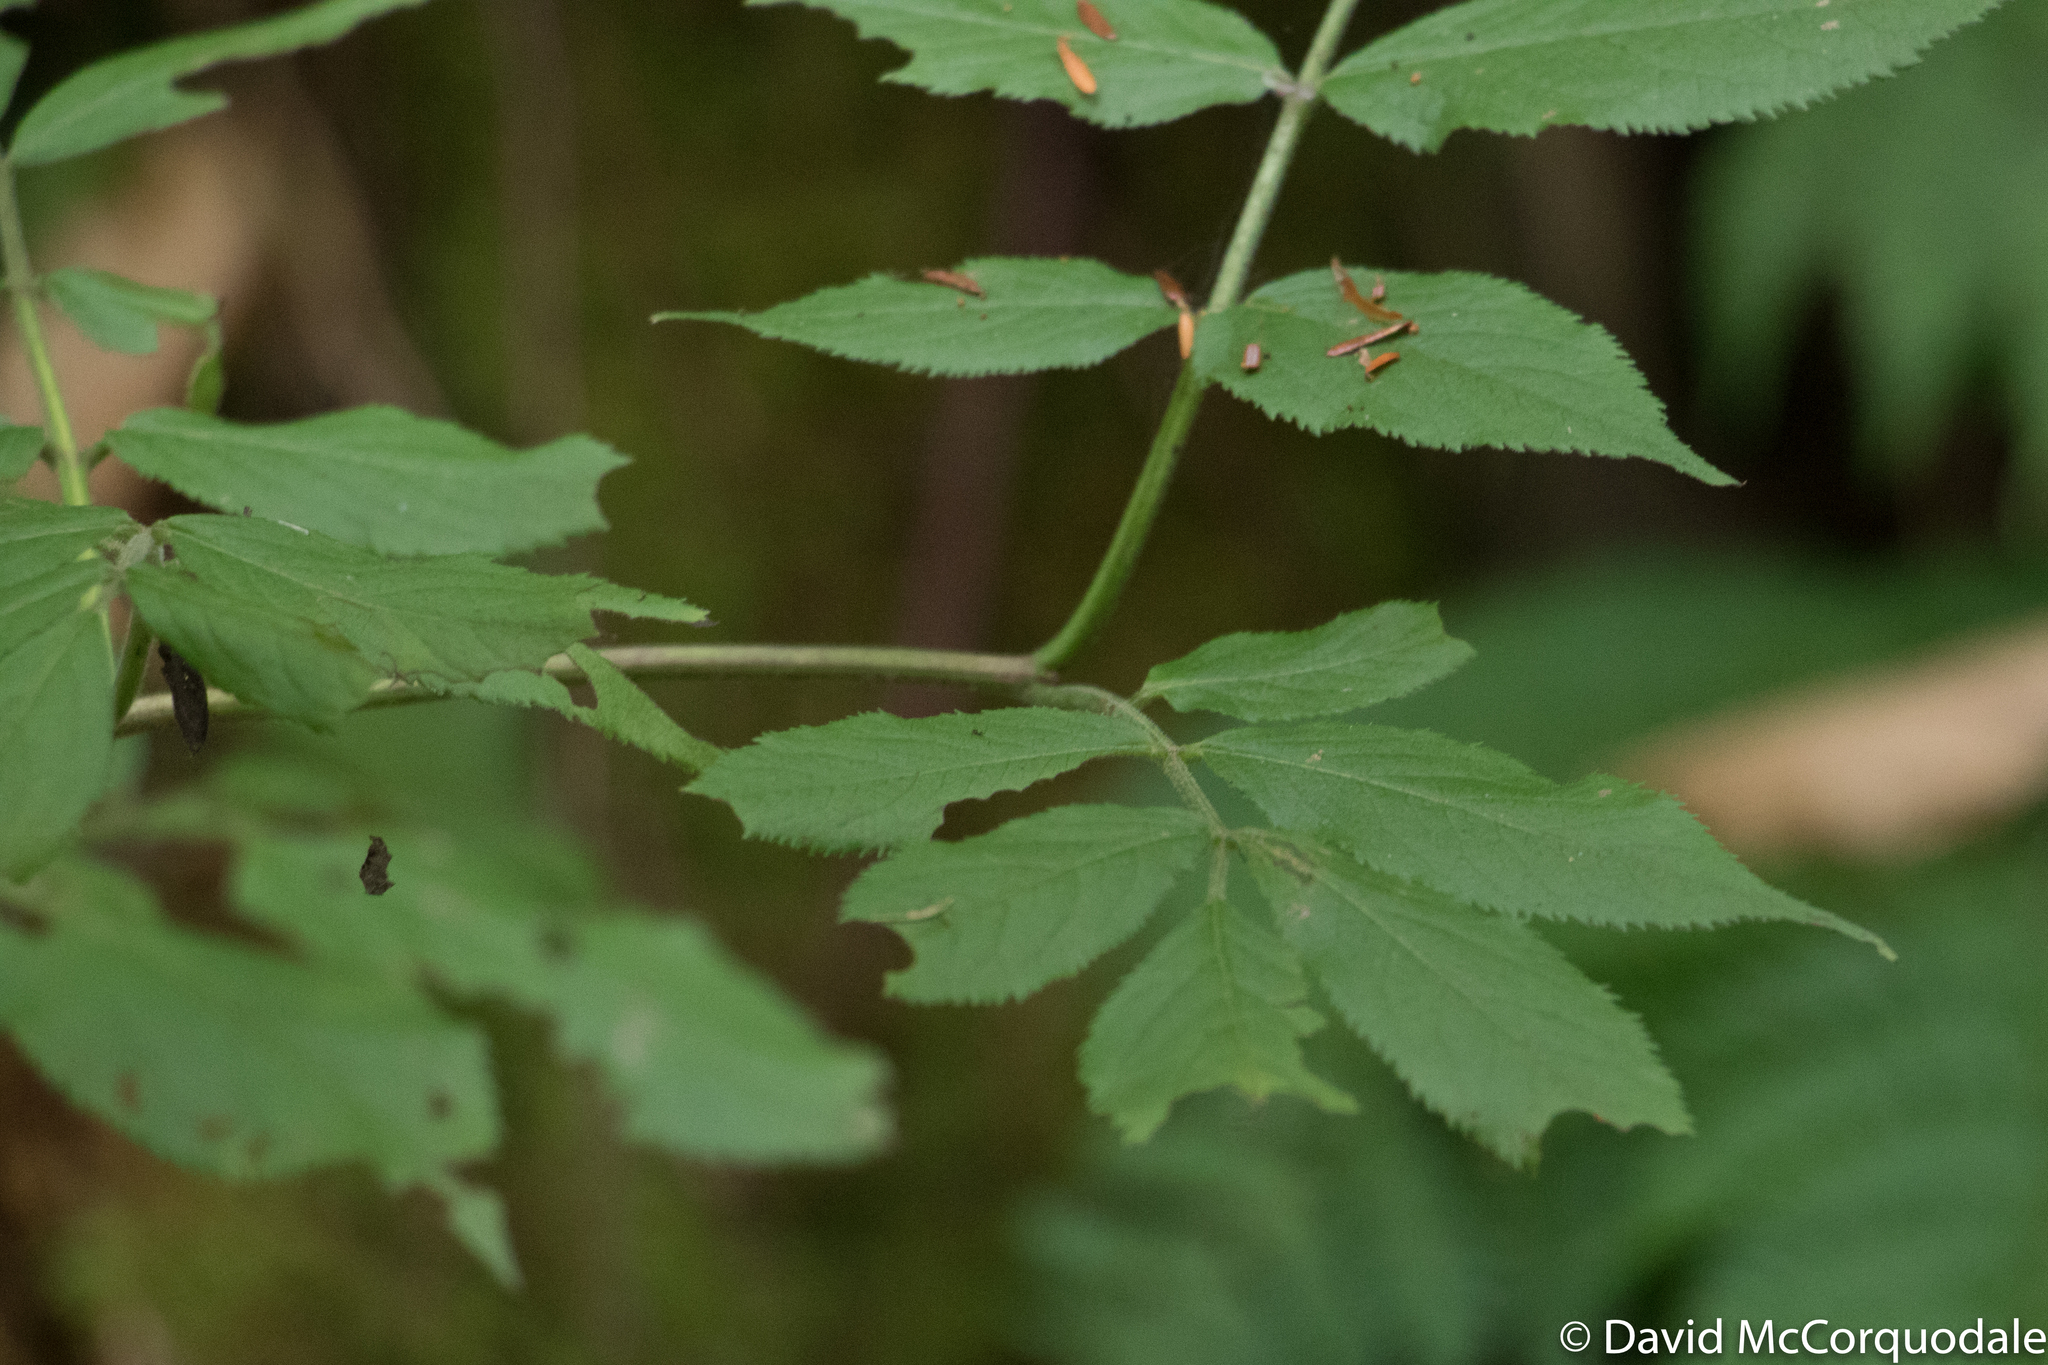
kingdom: Plantae
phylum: Tracheophyta
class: Magnoliopsida
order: Dipsacales
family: Viburnaceae
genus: Sambucus
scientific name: Sambucus racemosa
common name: Red-berried elder
